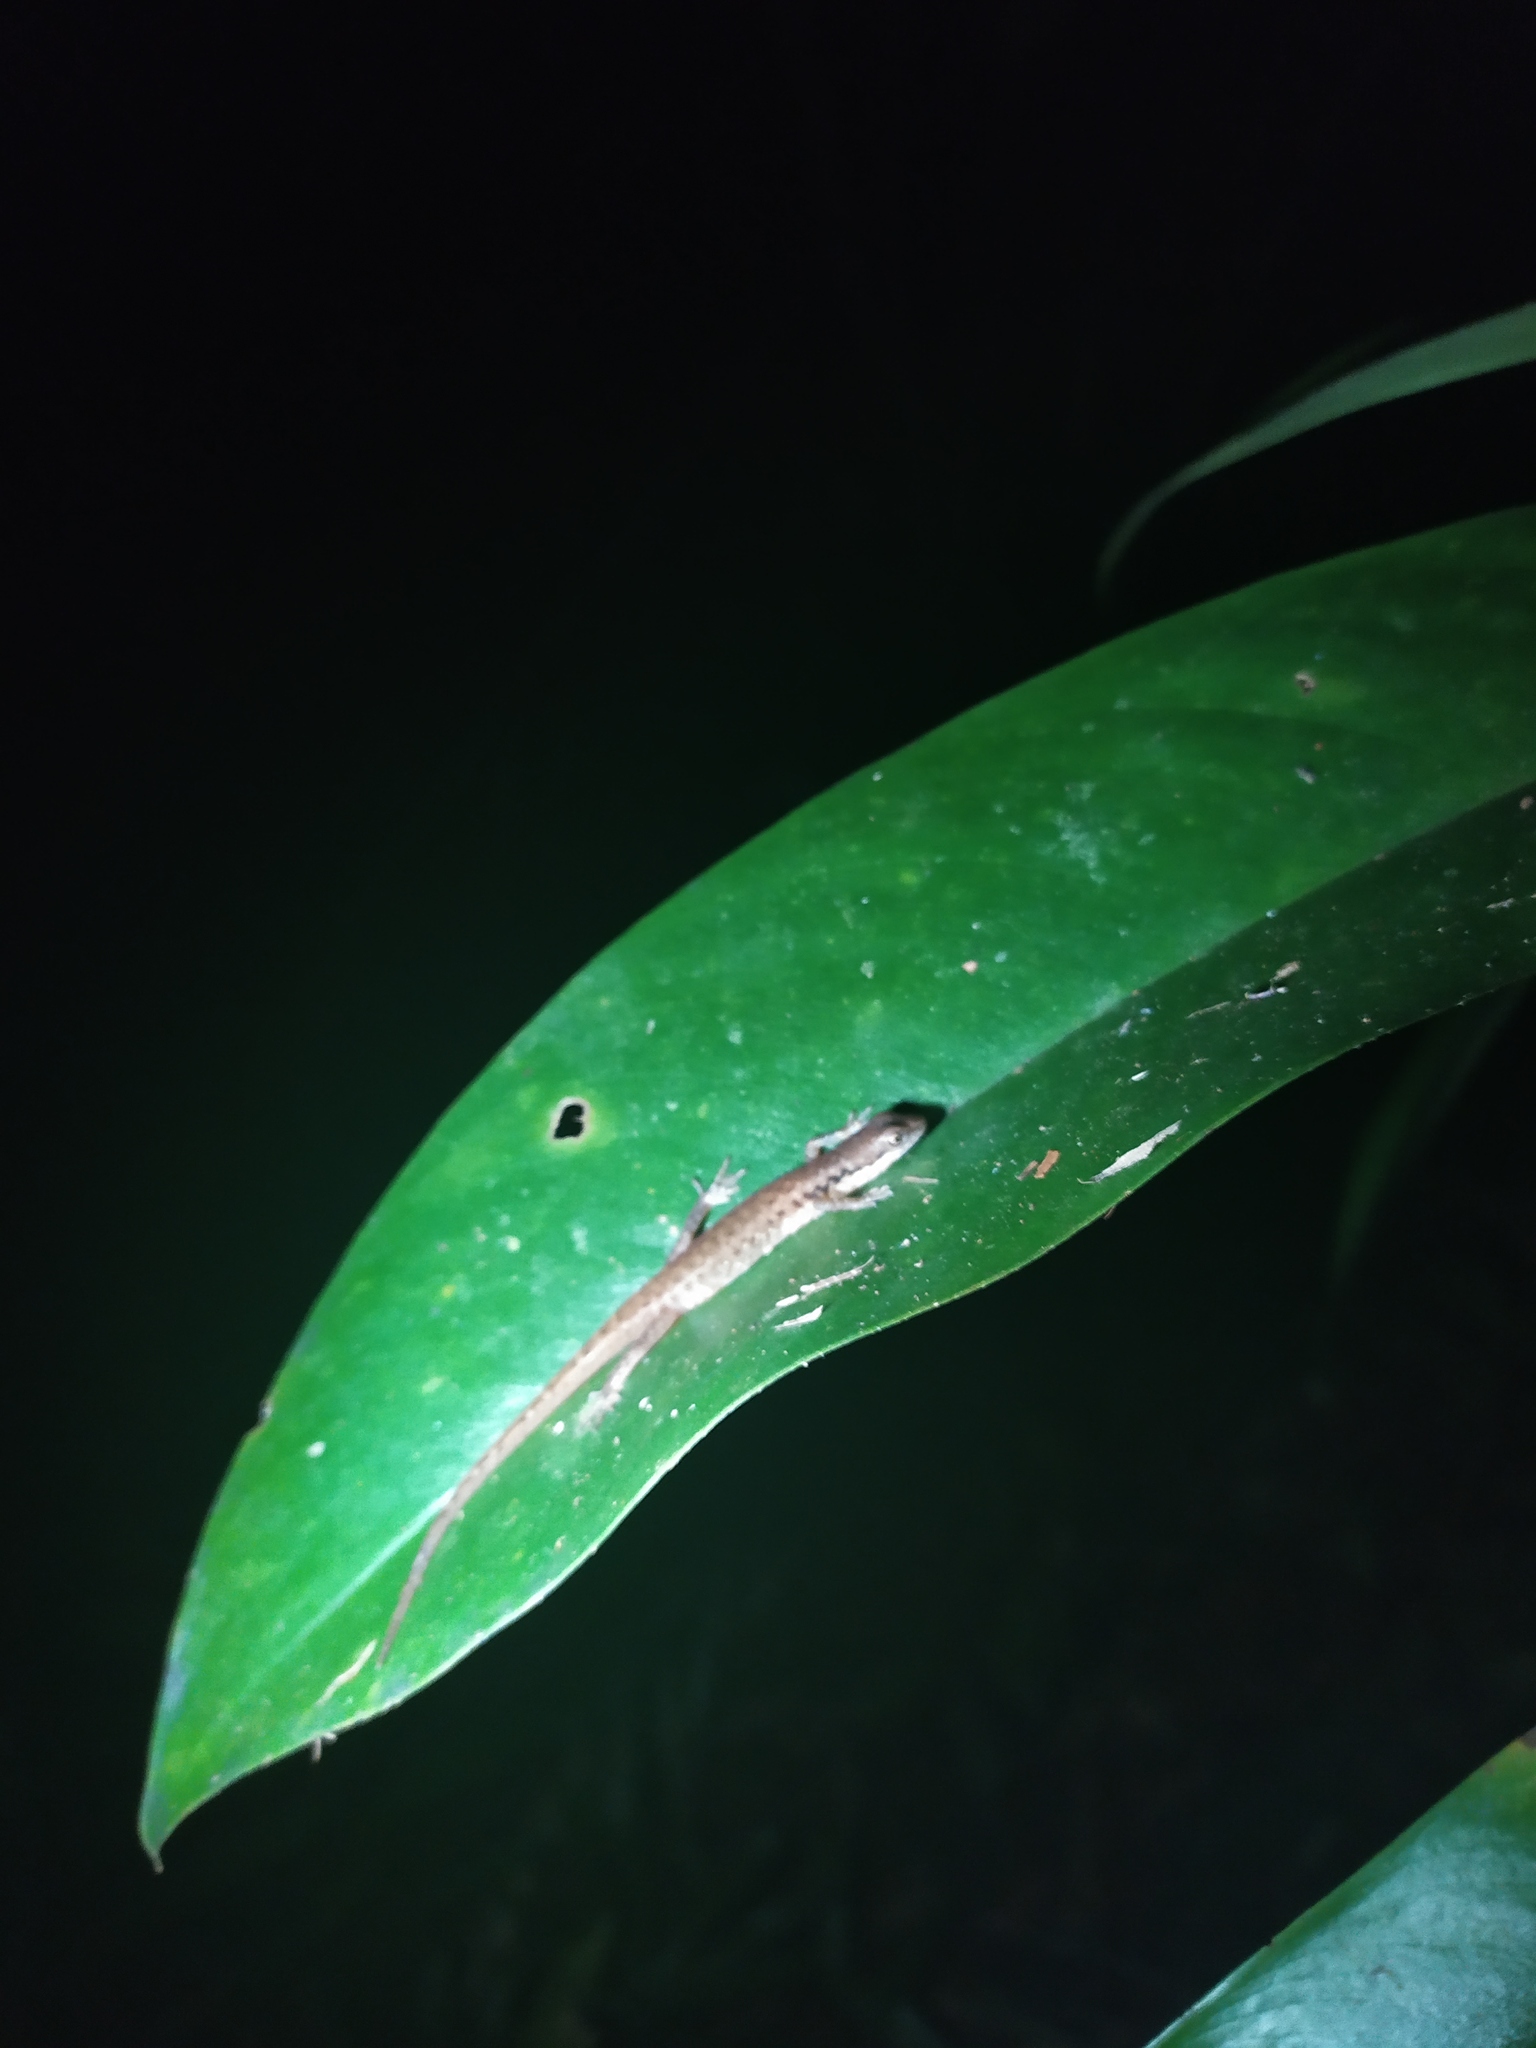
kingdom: Animalia
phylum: Chordata
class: Squamata
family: Scincidae
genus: Saproscincus
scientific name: Saproscincus basiliscus
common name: Pale-lipped shadeskink
